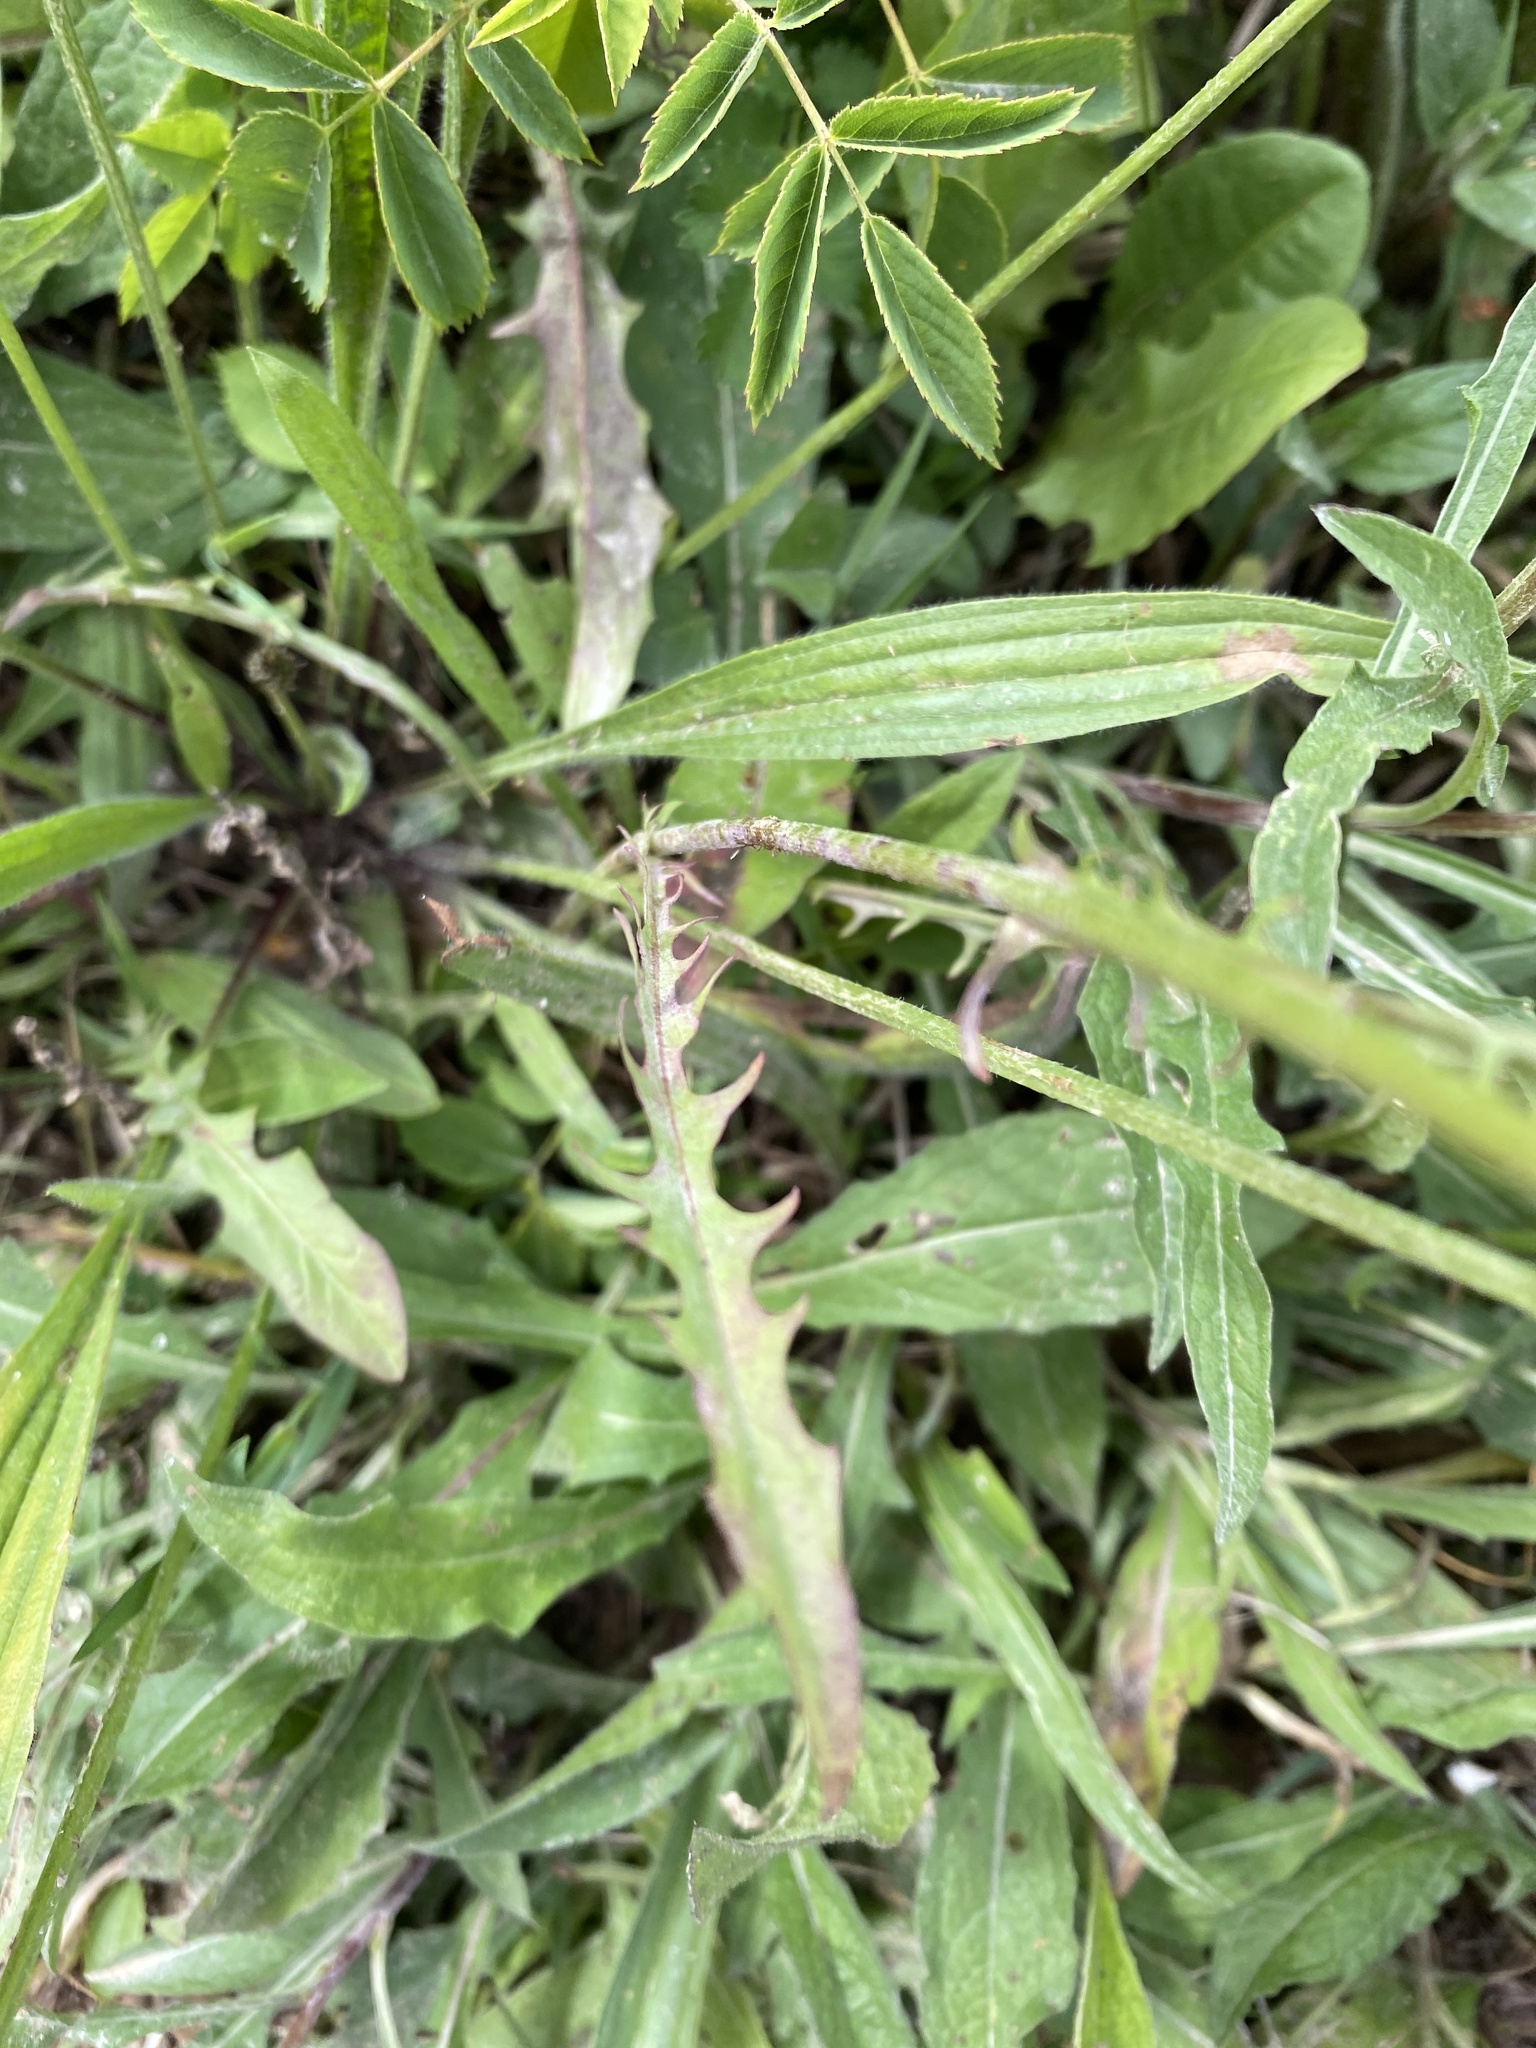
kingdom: Plantae
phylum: Tracheophyta
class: Magnoliopsida
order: Asterales
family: Asteraceae
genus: Crepis
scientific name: Crepis capillaris
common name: Smooth hawksbeard
